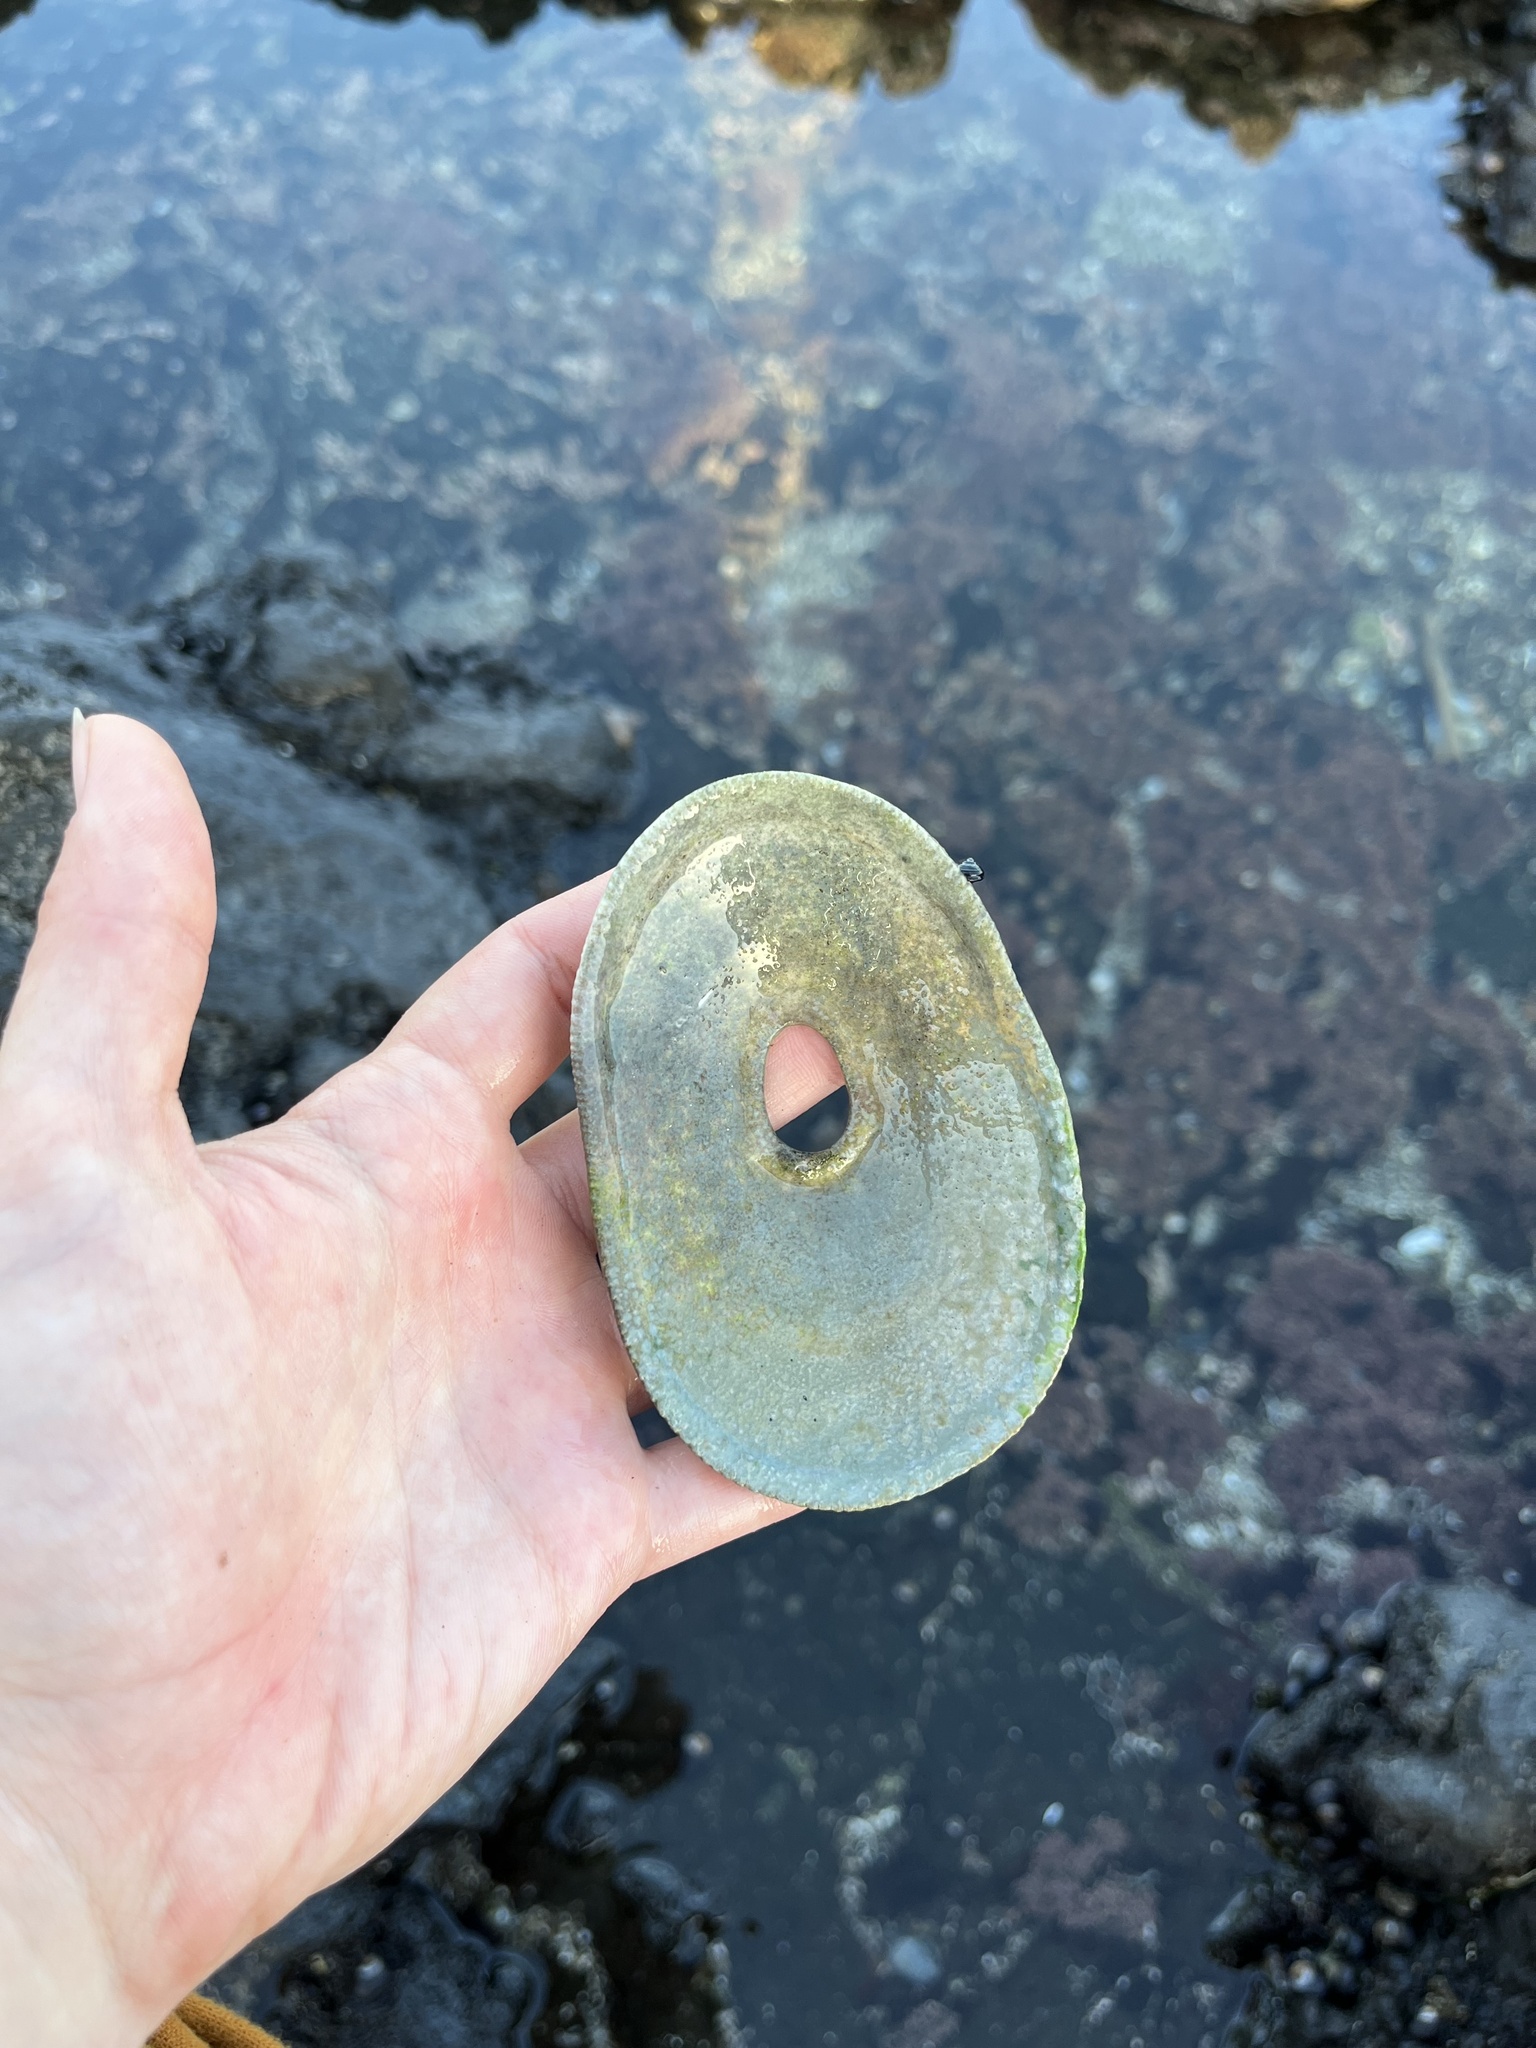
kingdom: Animalia
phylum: Mollusca
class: Gastropoda
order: Lepetellida
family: Fissurellidae
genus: Megathura
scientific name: Megathura crenulata
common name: Giant keyhole limpet
